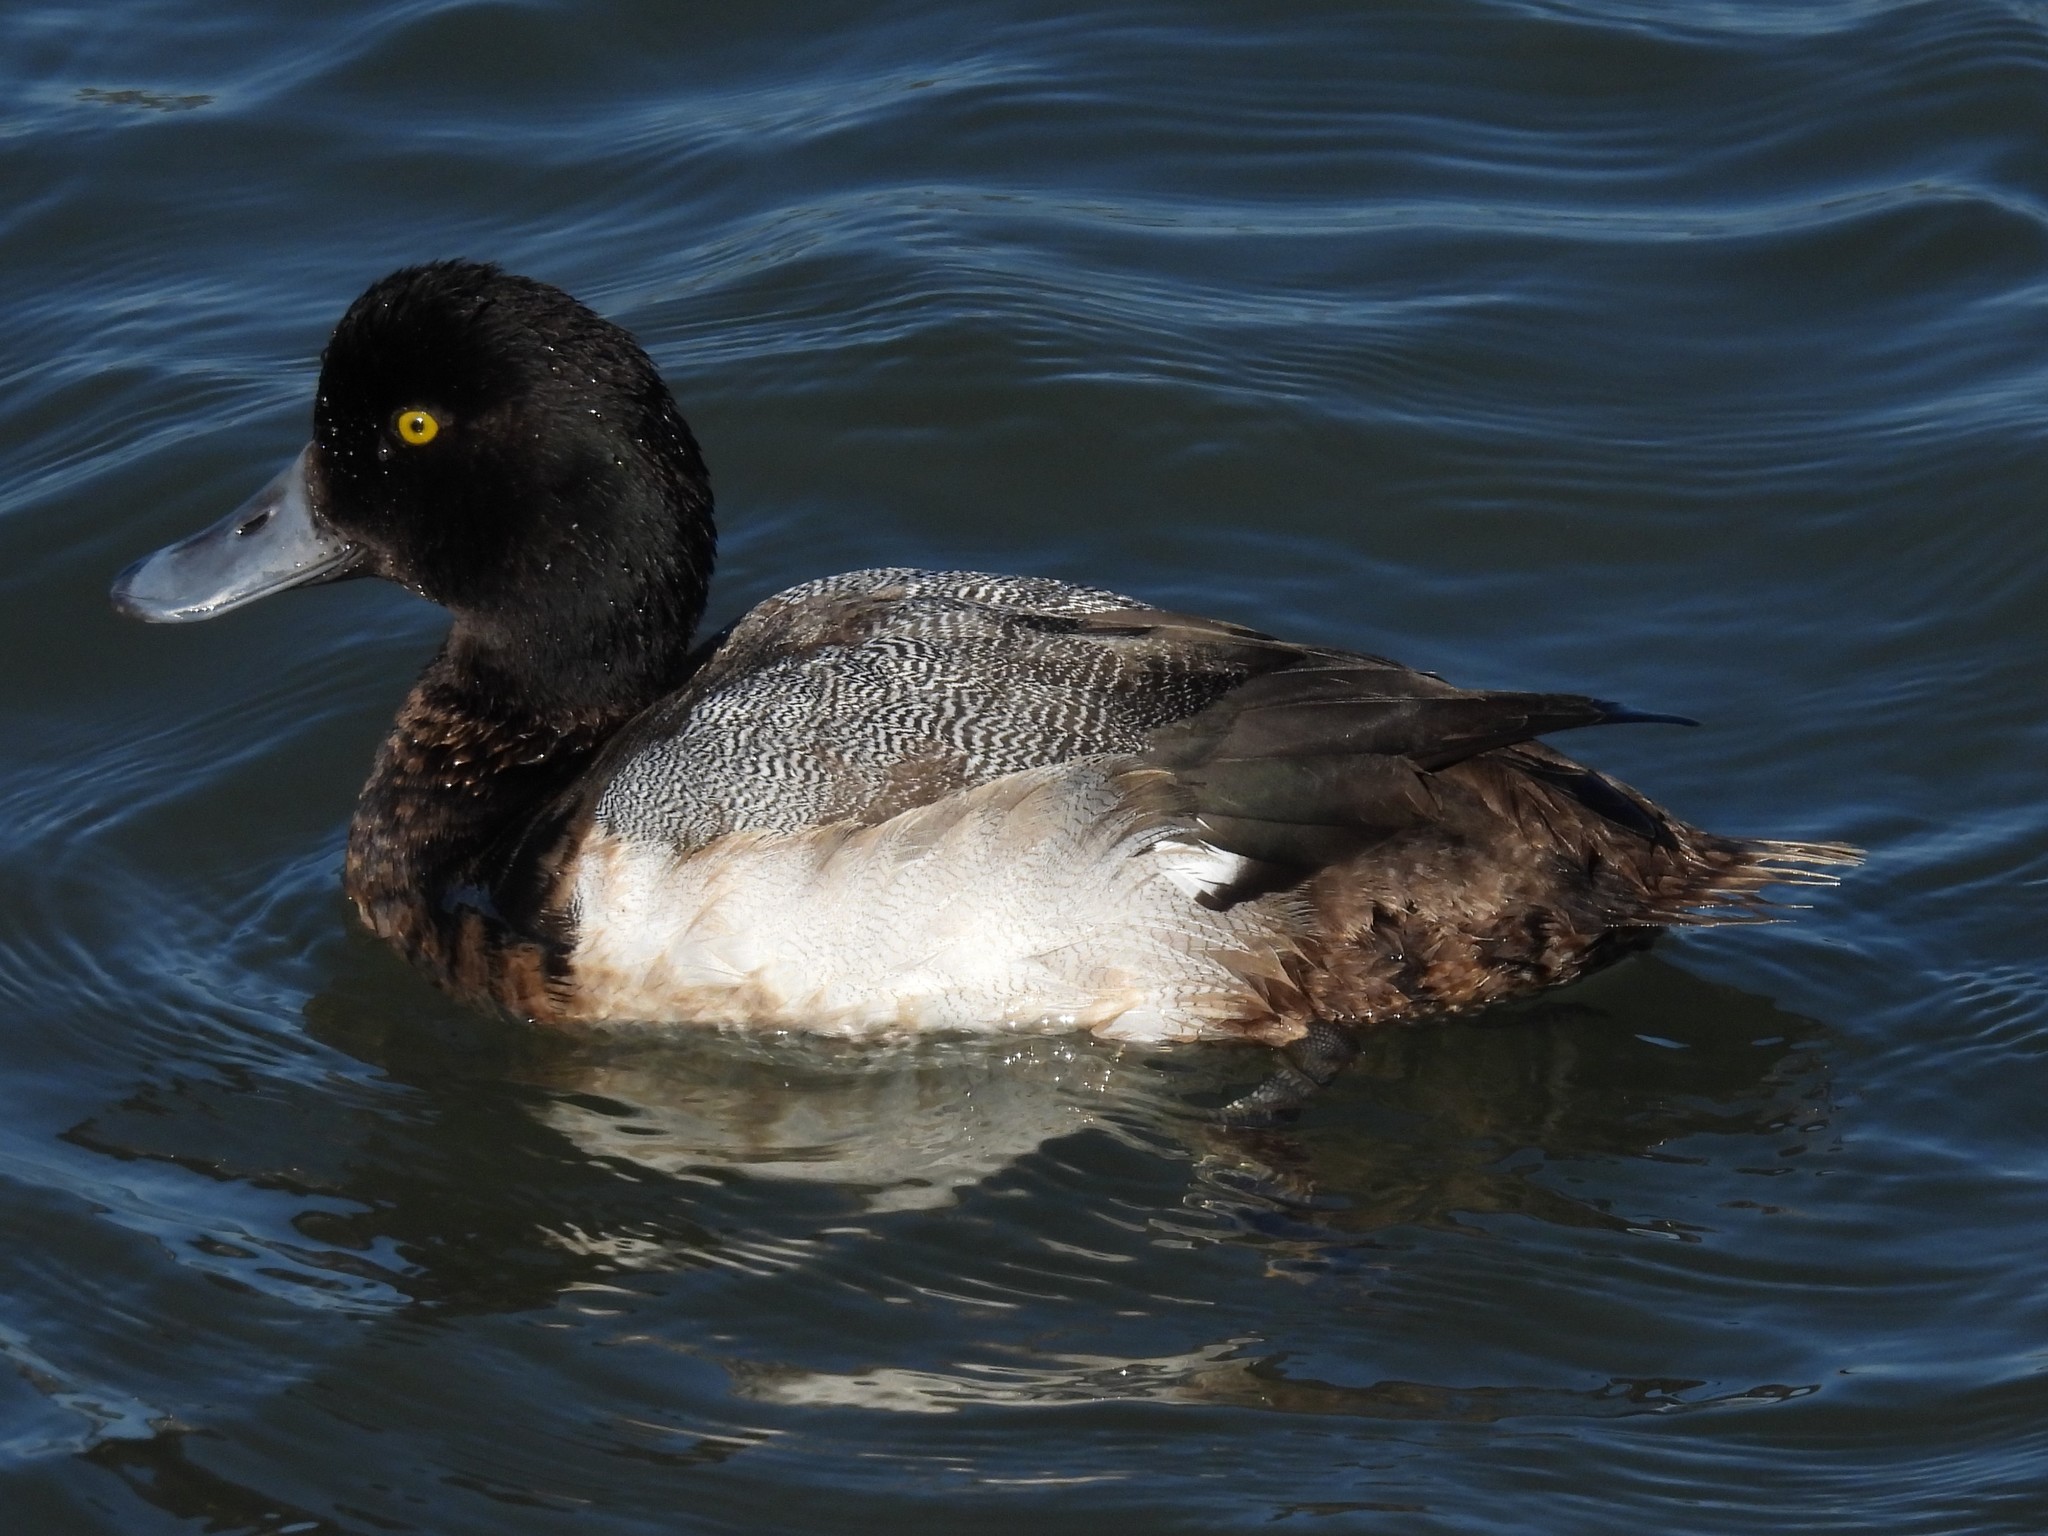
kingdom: Animalia
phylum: Chordata
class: Aves
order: Anseriformes
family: Anatidae
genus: Aythya
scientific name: Aythya marila
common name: Greater scaup
